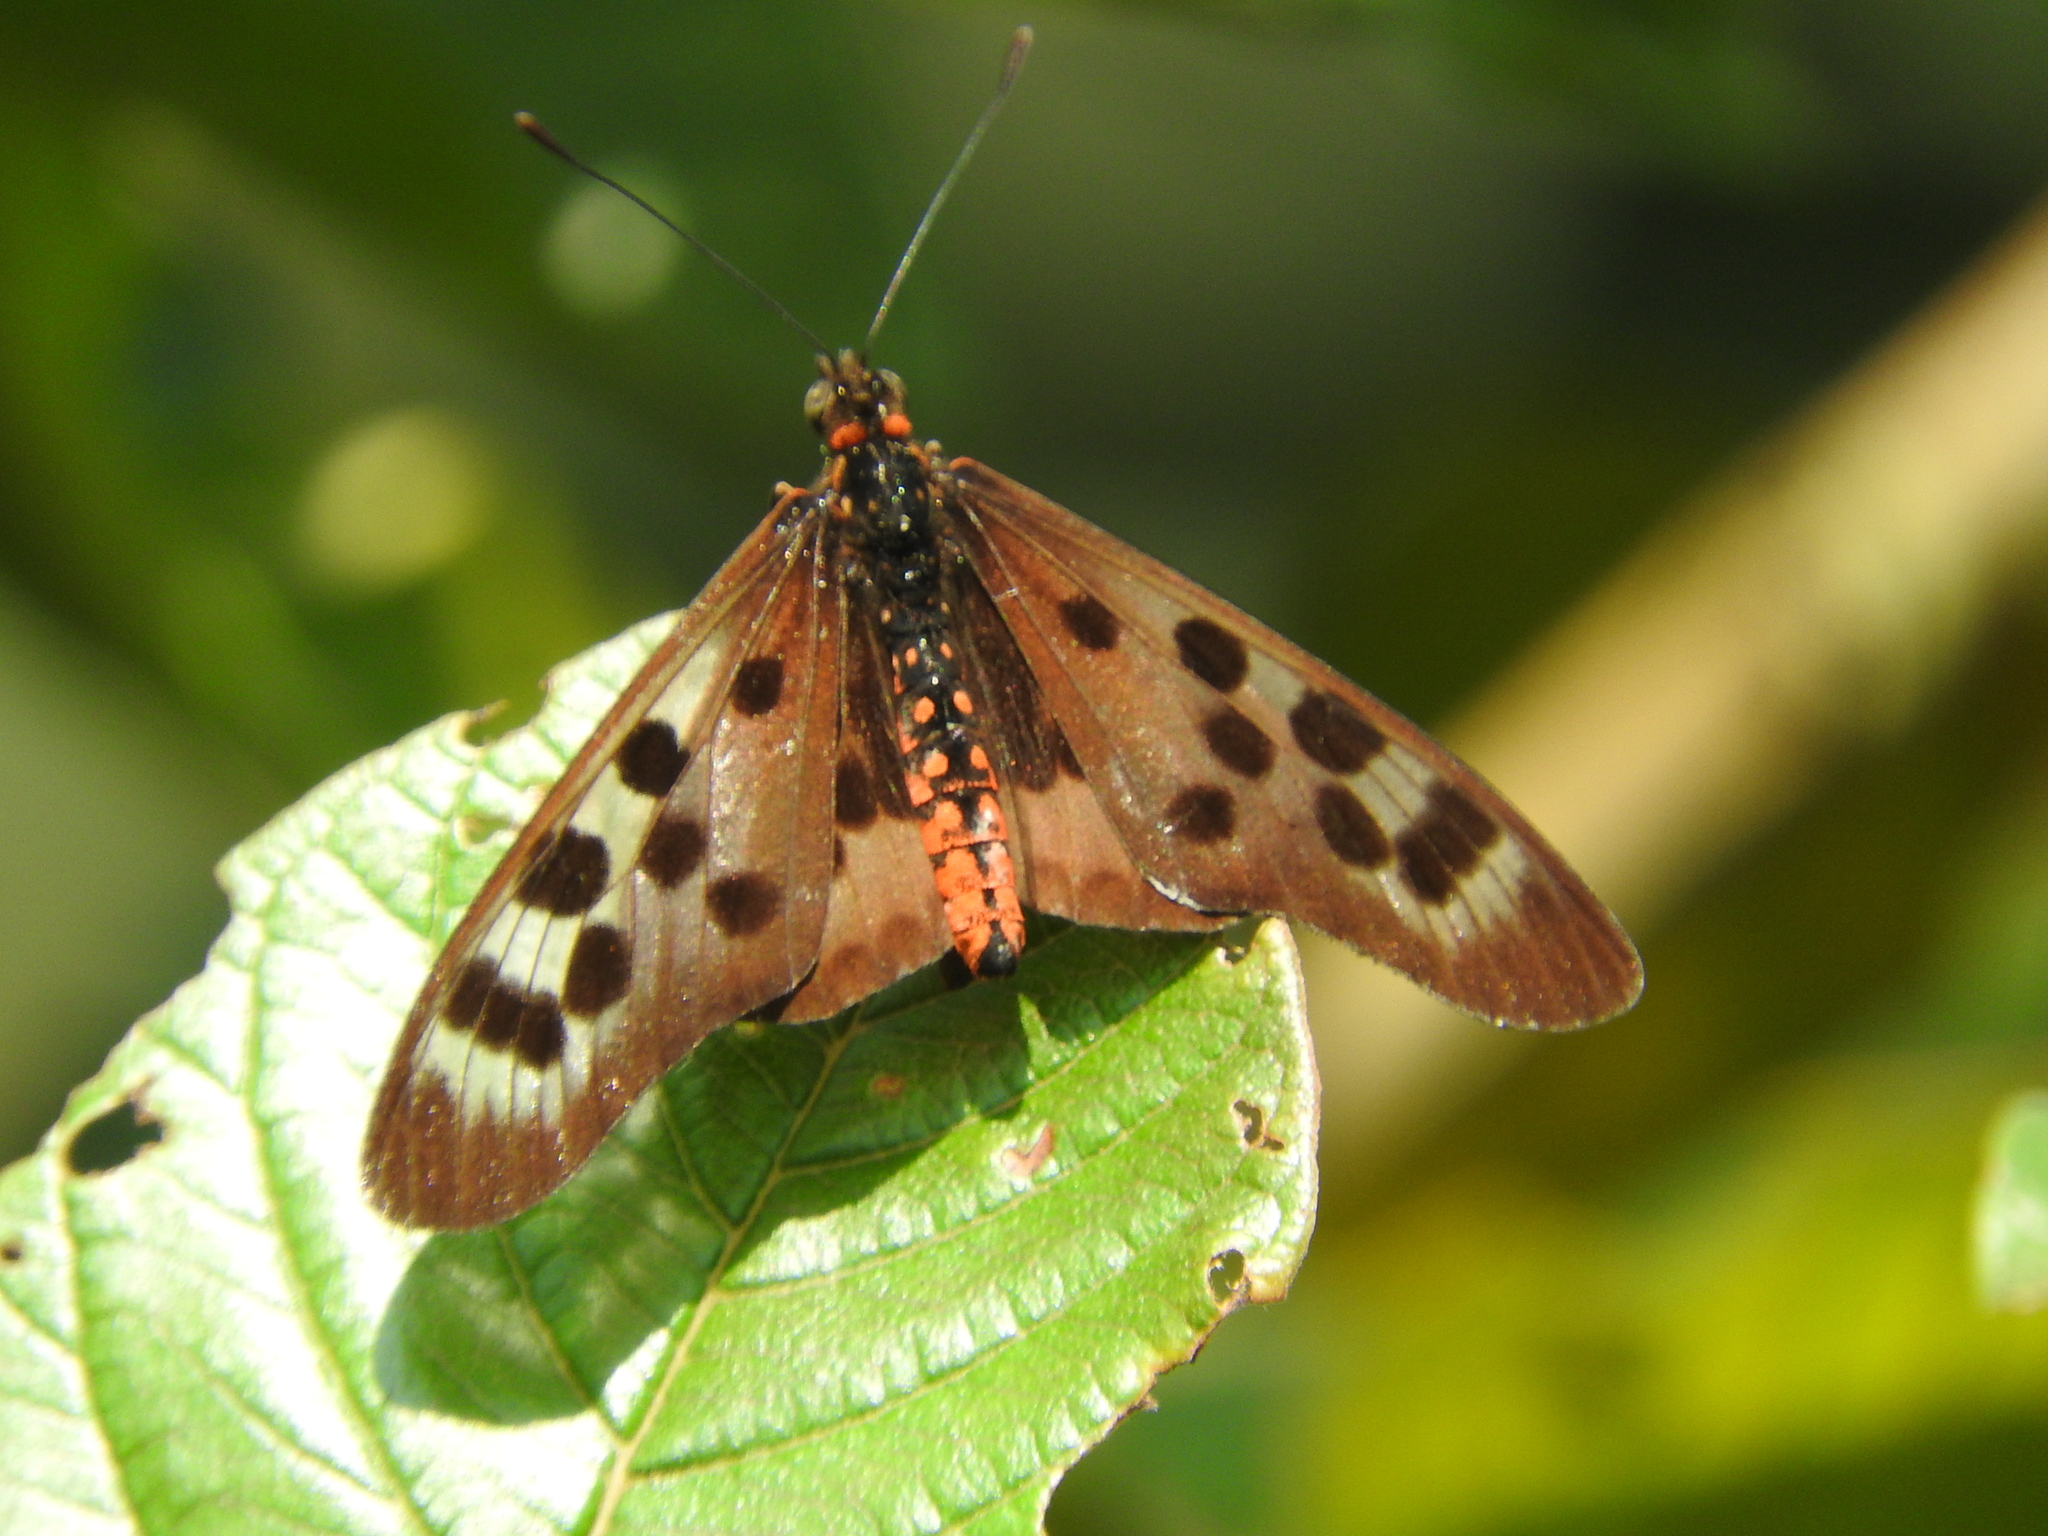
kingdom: Animalia
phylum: Arthropoda
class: Insecta
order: Lepidoptera
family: Nymphalidae
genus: Rubraea
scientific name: Rubraea
